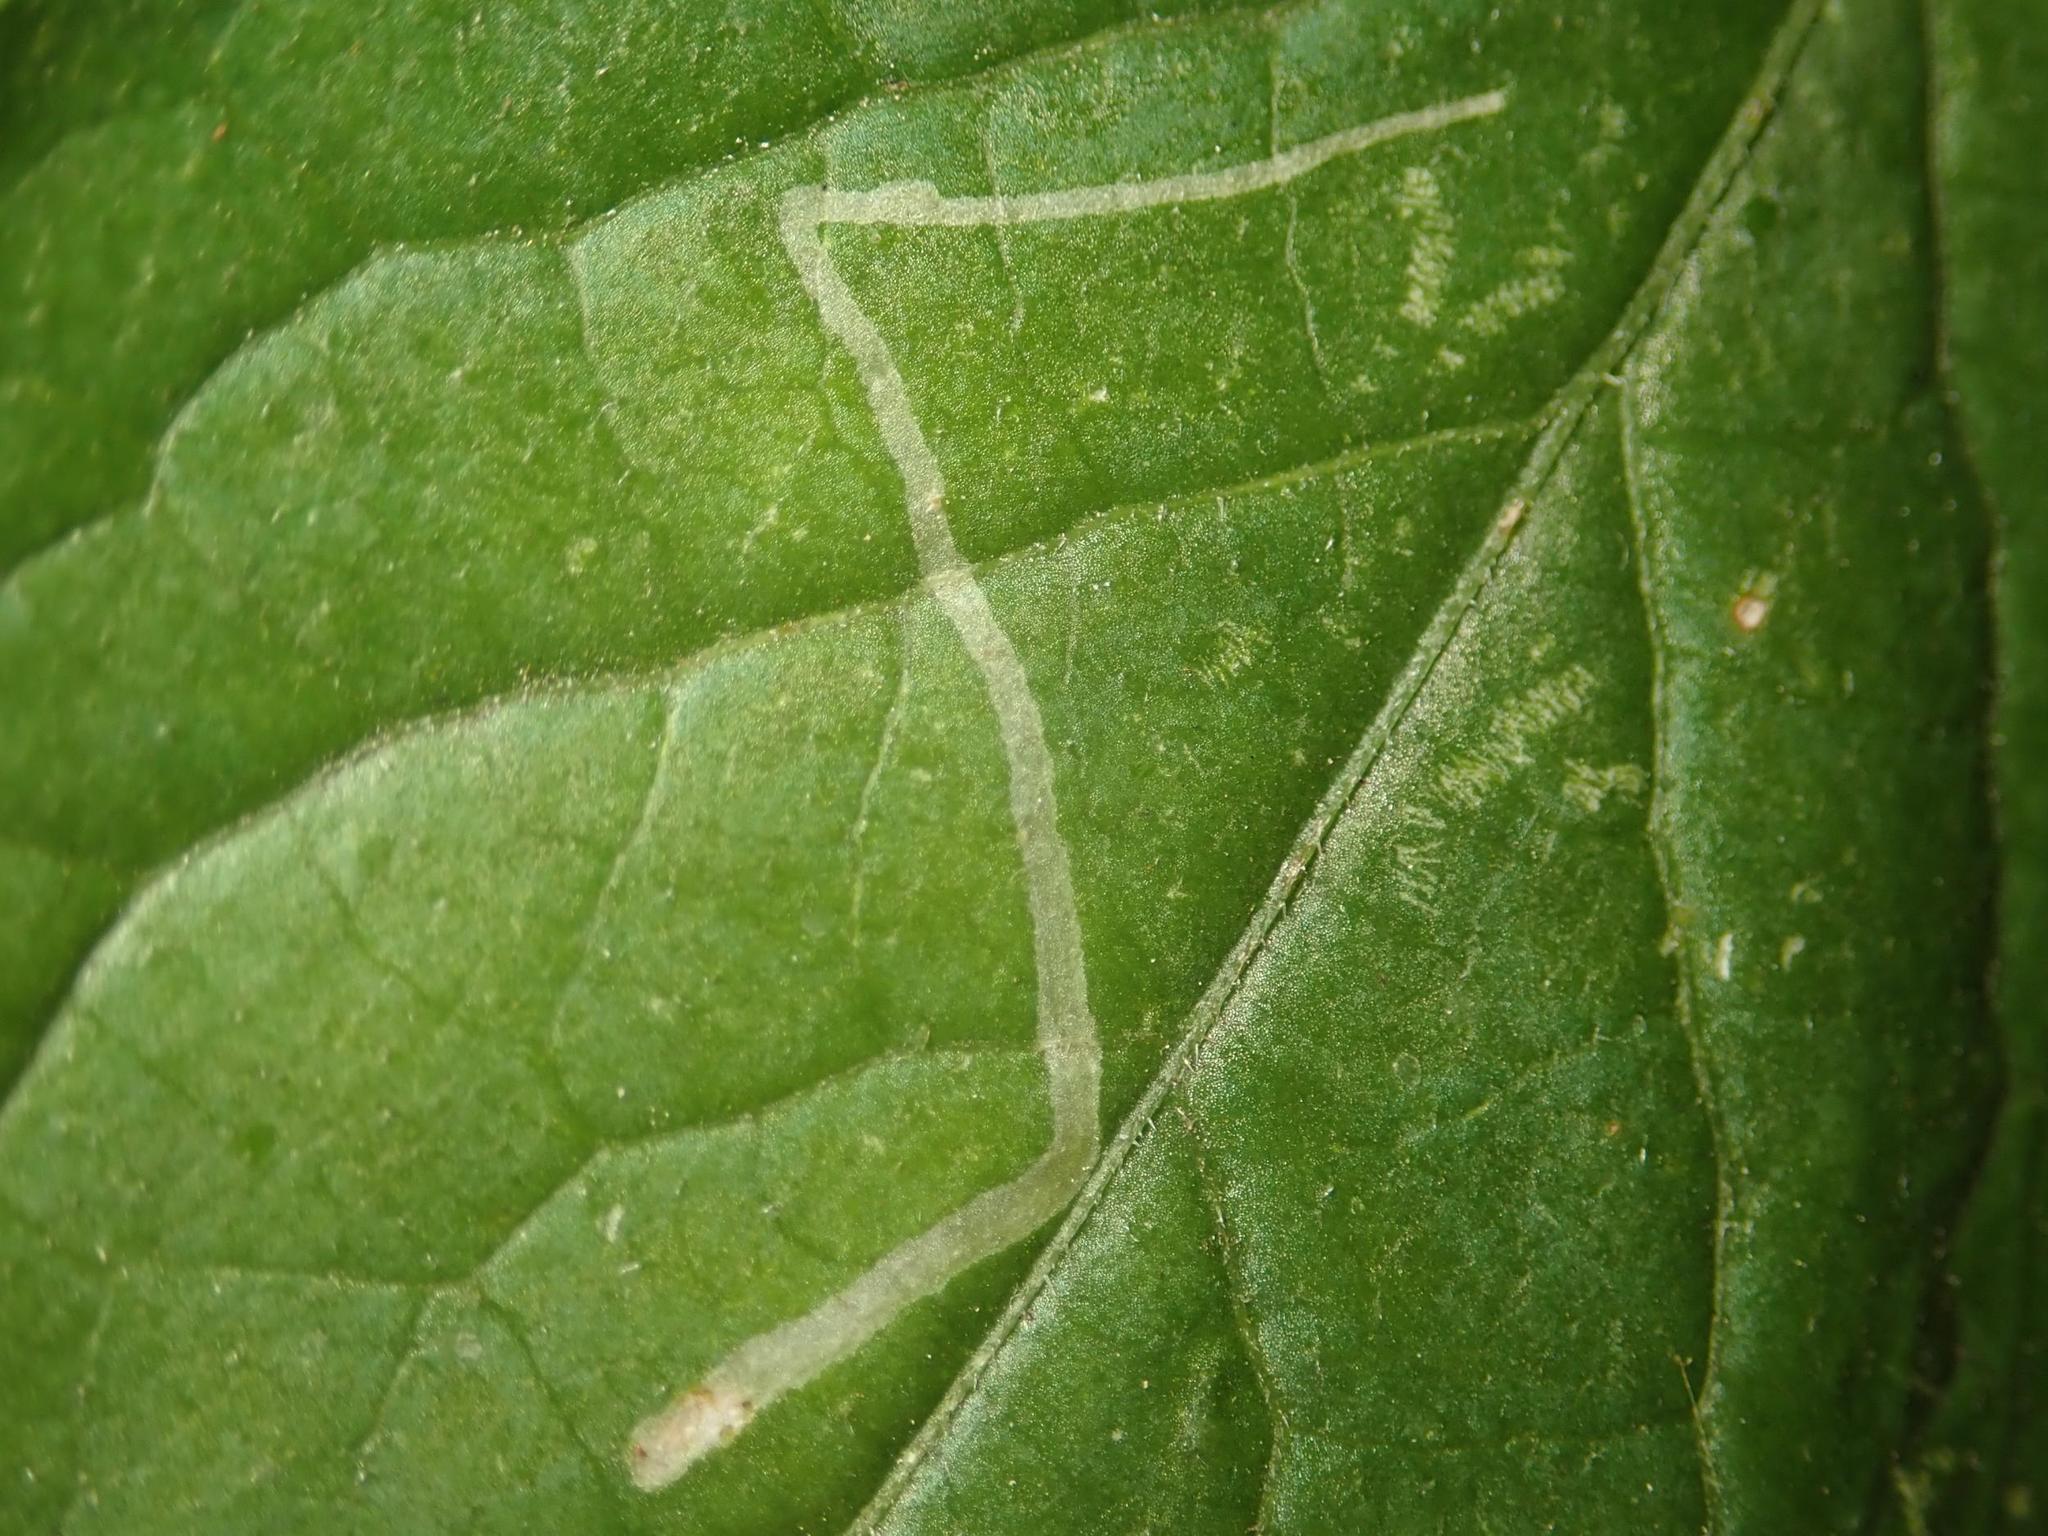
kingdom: Animalia
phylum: Arthropoda
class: Insecta
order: Diptera
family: Agromyzidae
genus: Liriomyza
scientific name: Liriomyza amoena
